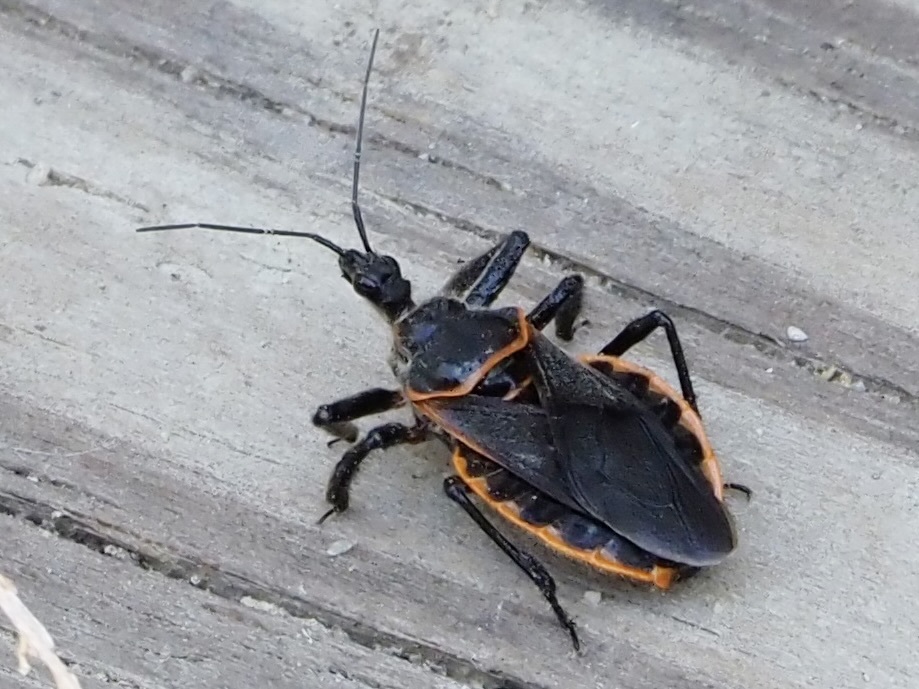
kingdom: Animalia
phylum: Arthropoda
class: Insecta
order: Hemiptera
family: Reduviidae
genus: Apiomerus
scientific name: Apiomerus crassipes
